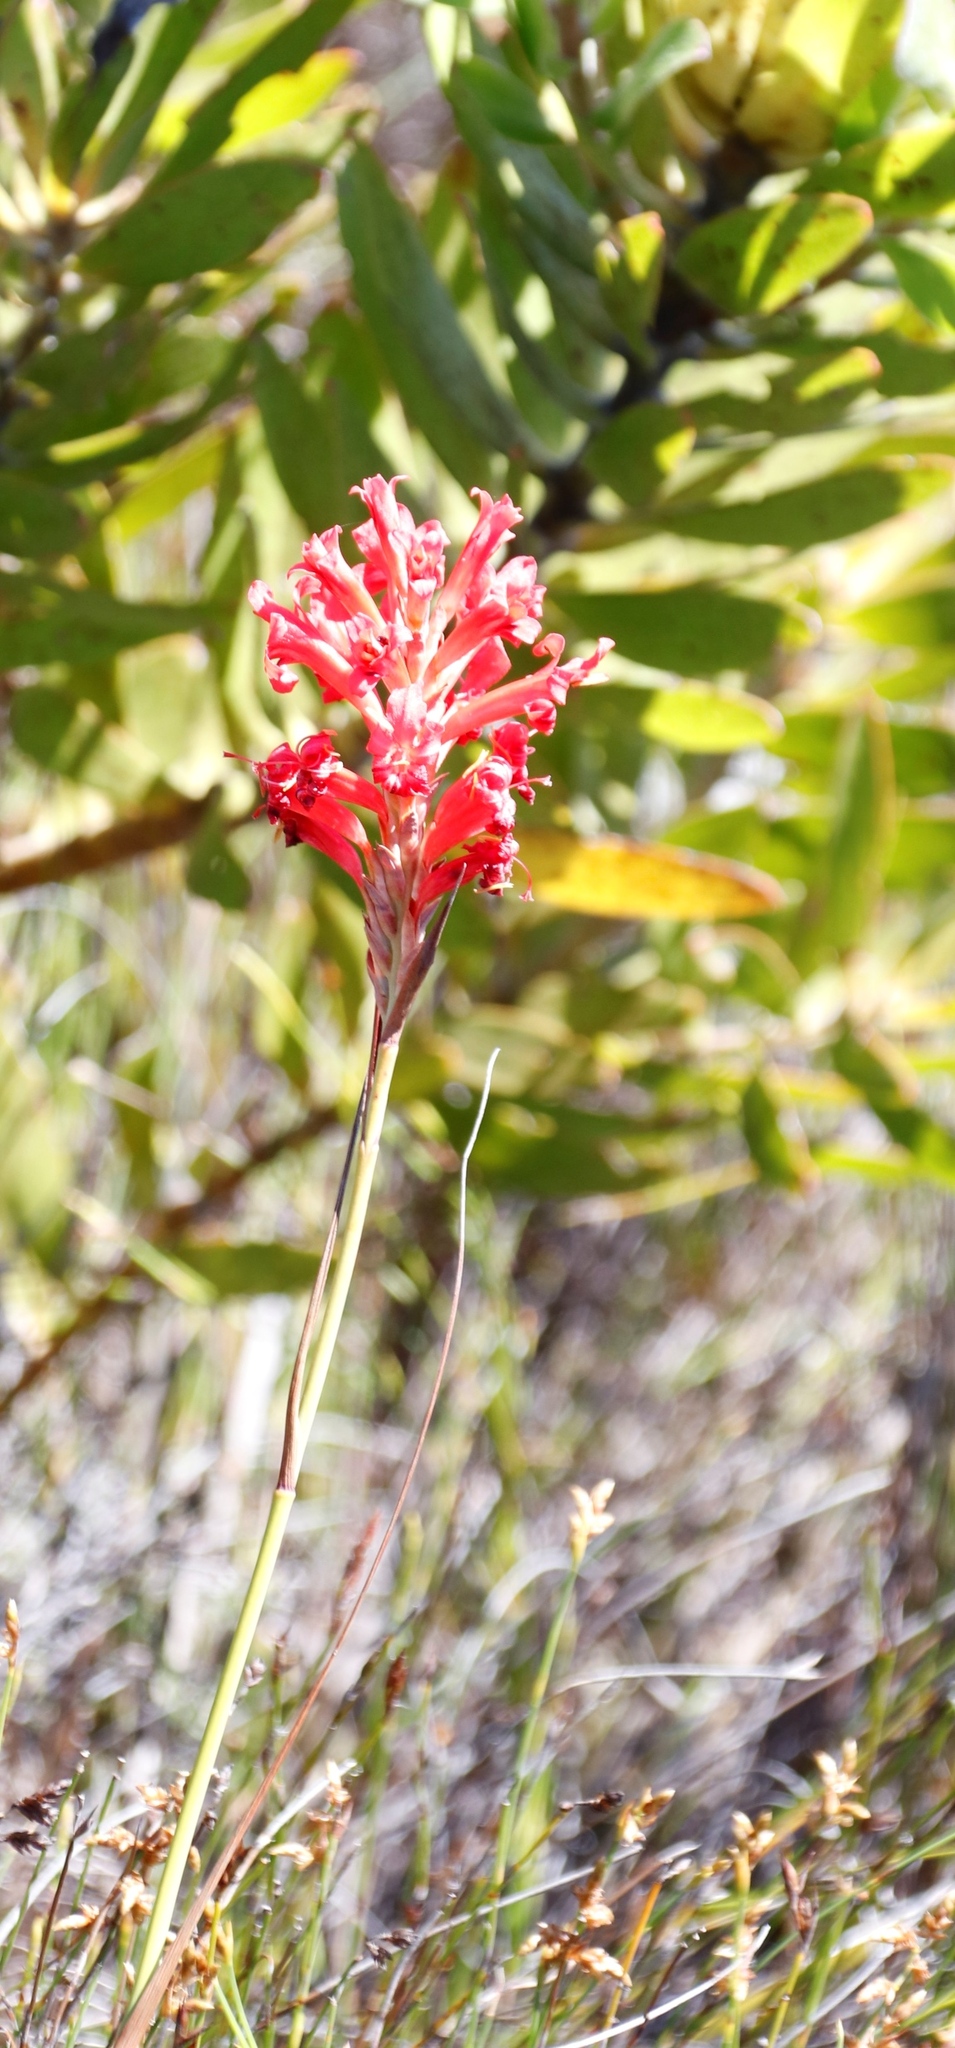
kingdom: Plantae
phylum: Tracheophyta
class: Liliopsida
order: Asparagales
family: Iridaceae
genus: Tritoniopsis
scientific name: Tritoniopsis triticea
